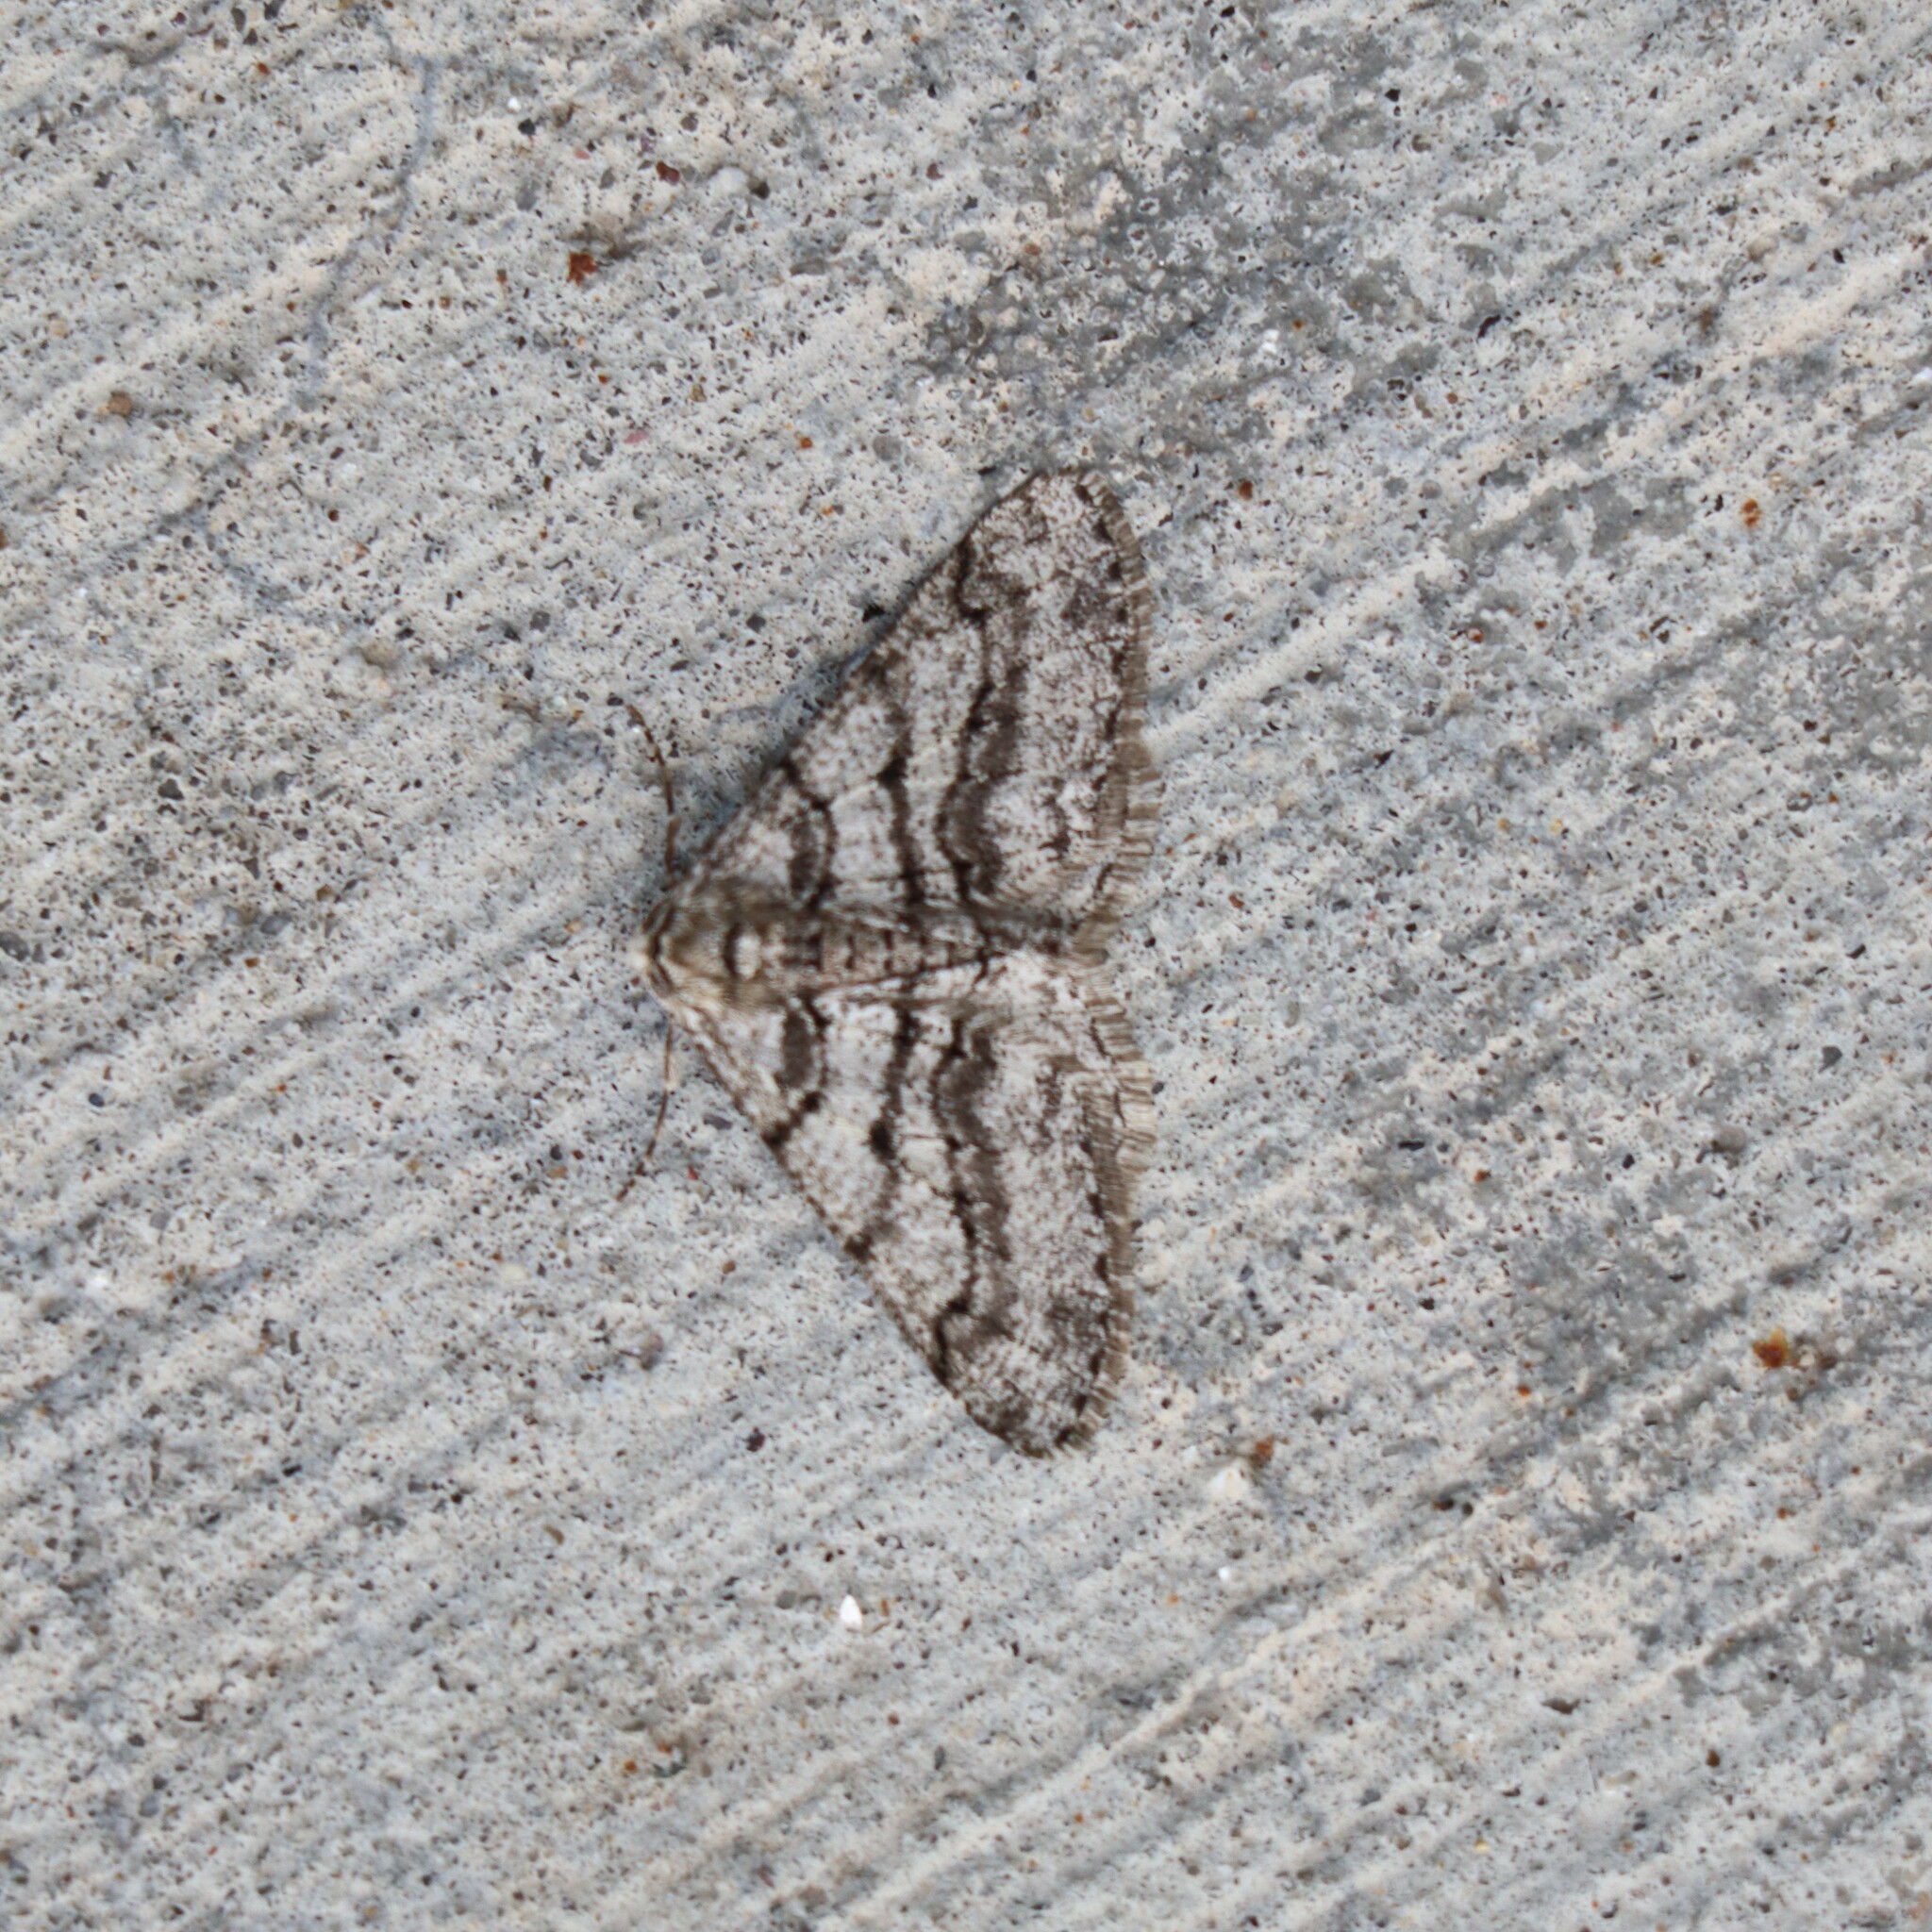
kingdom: Animalia
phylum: Arthropoda
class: Insecta
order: Lepidoptera
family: Geometridae
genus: Phigalia
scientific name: Phigalia titea
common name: Spiny looper
